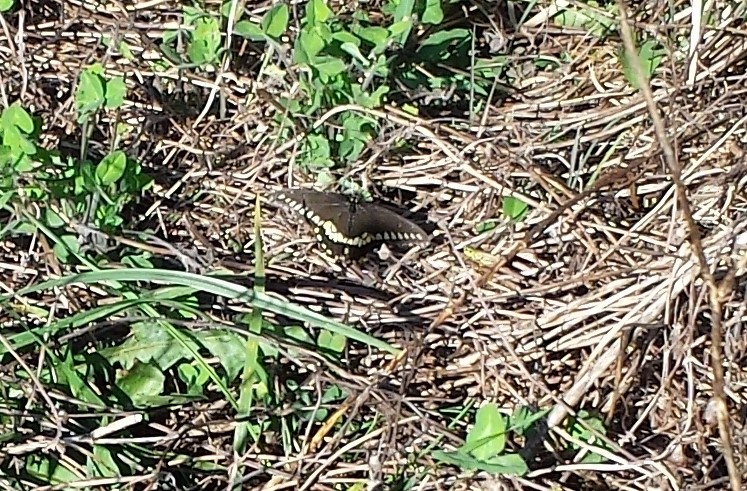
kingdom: Animalia
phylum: Arthropoda
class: Insecta
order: Lepidoptera
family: Papilionidae
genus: Papilio
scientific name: Papilio polyxenes
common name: Black swallowtail
